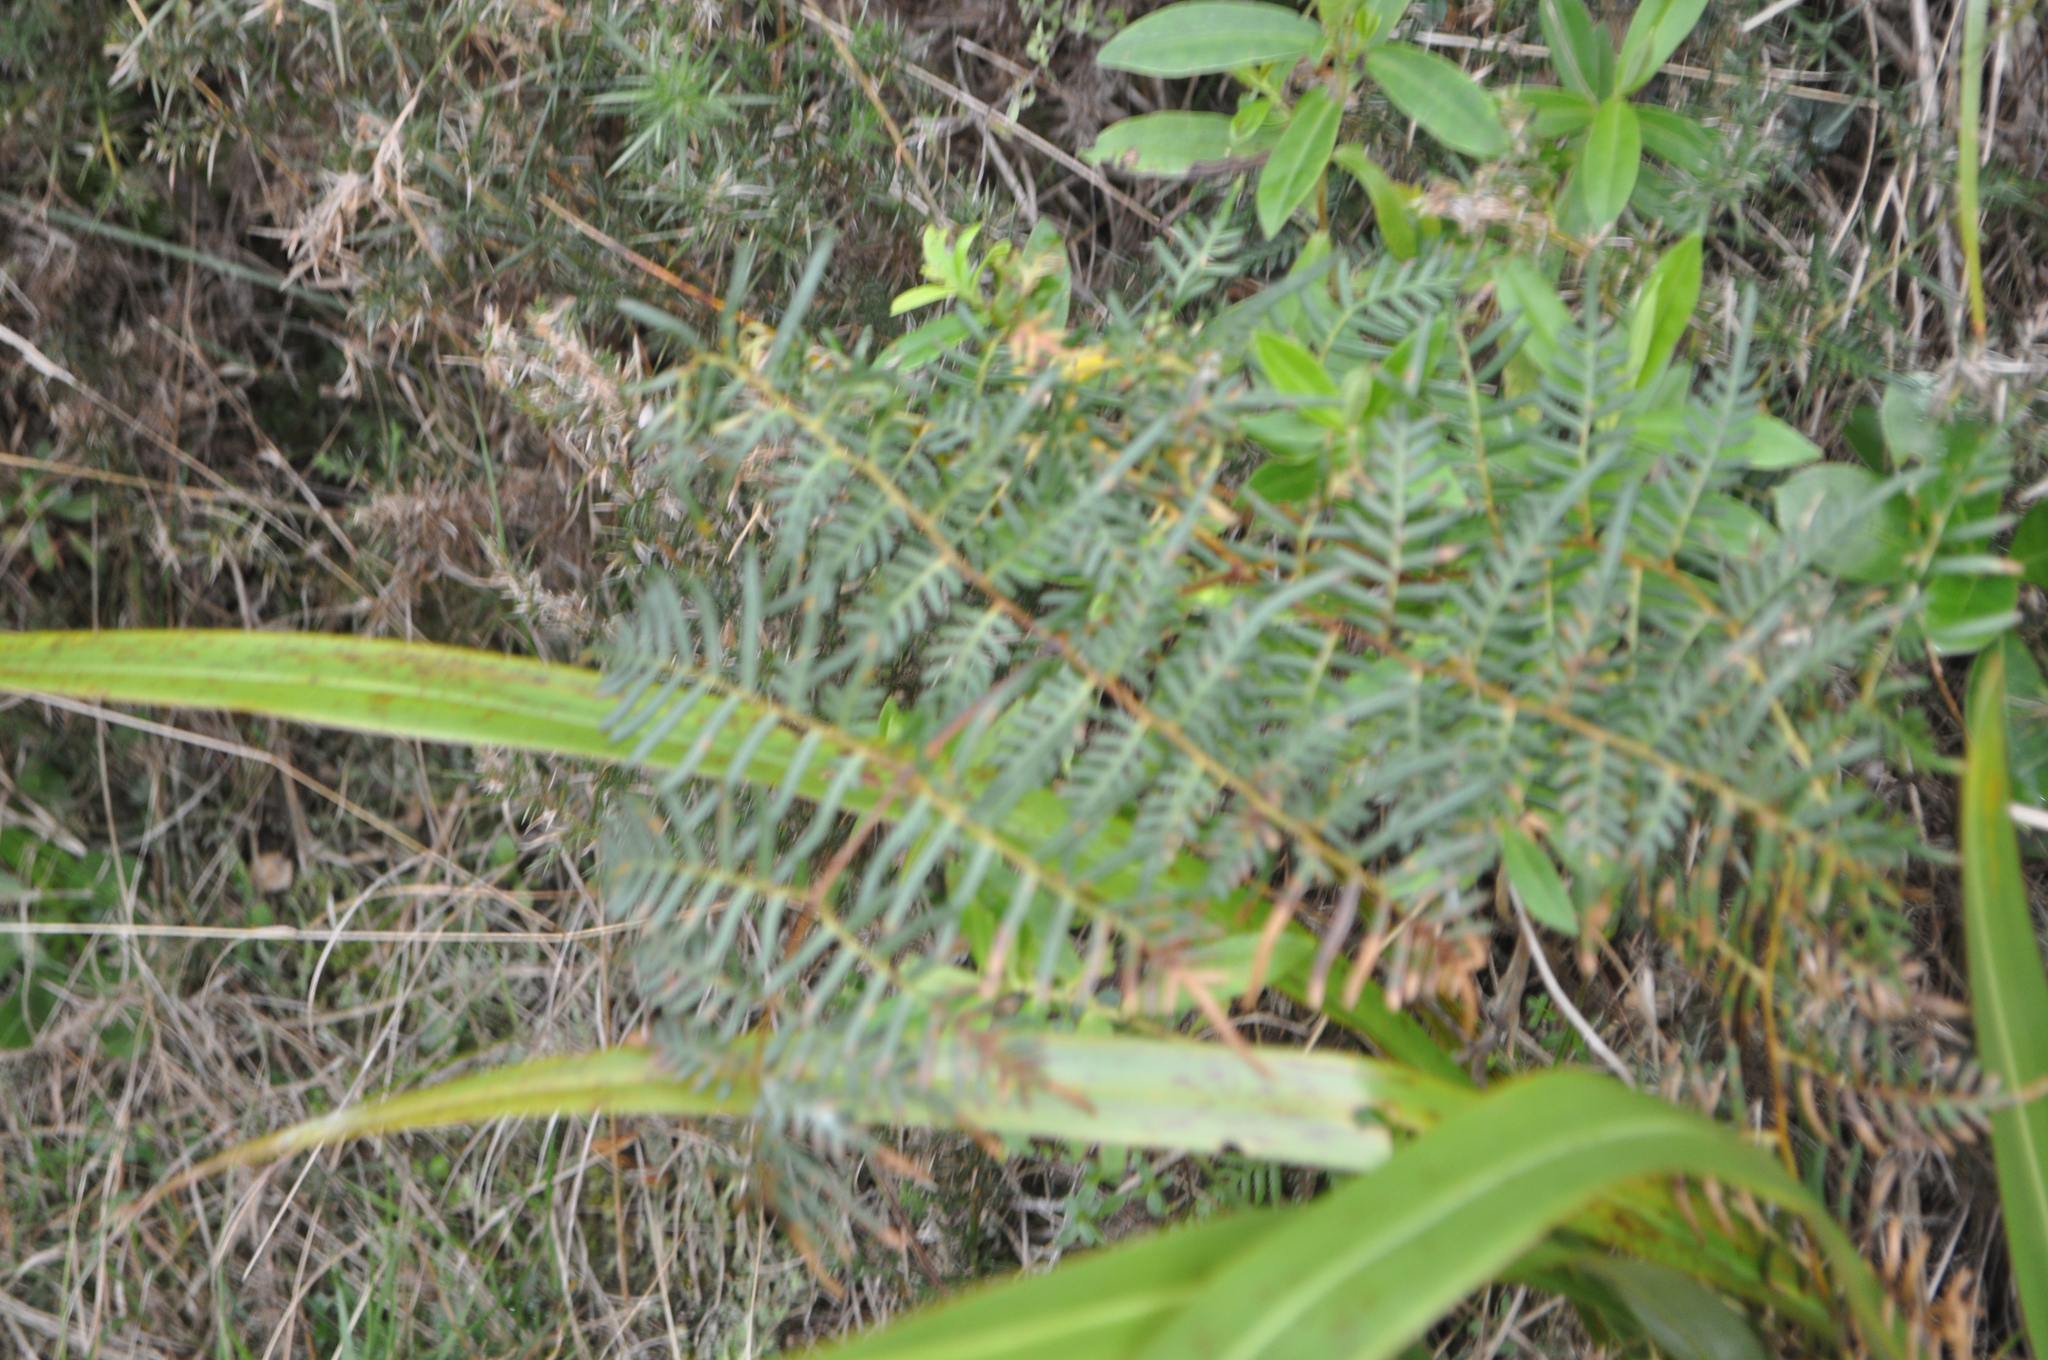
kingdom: Plantae
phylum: Tracheophyta
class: Polypodiopsida
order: Polypodiales
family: Dennstaedtiaceae
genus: Pteridium
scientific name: Pteridium esculentum
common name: Bracken fern
